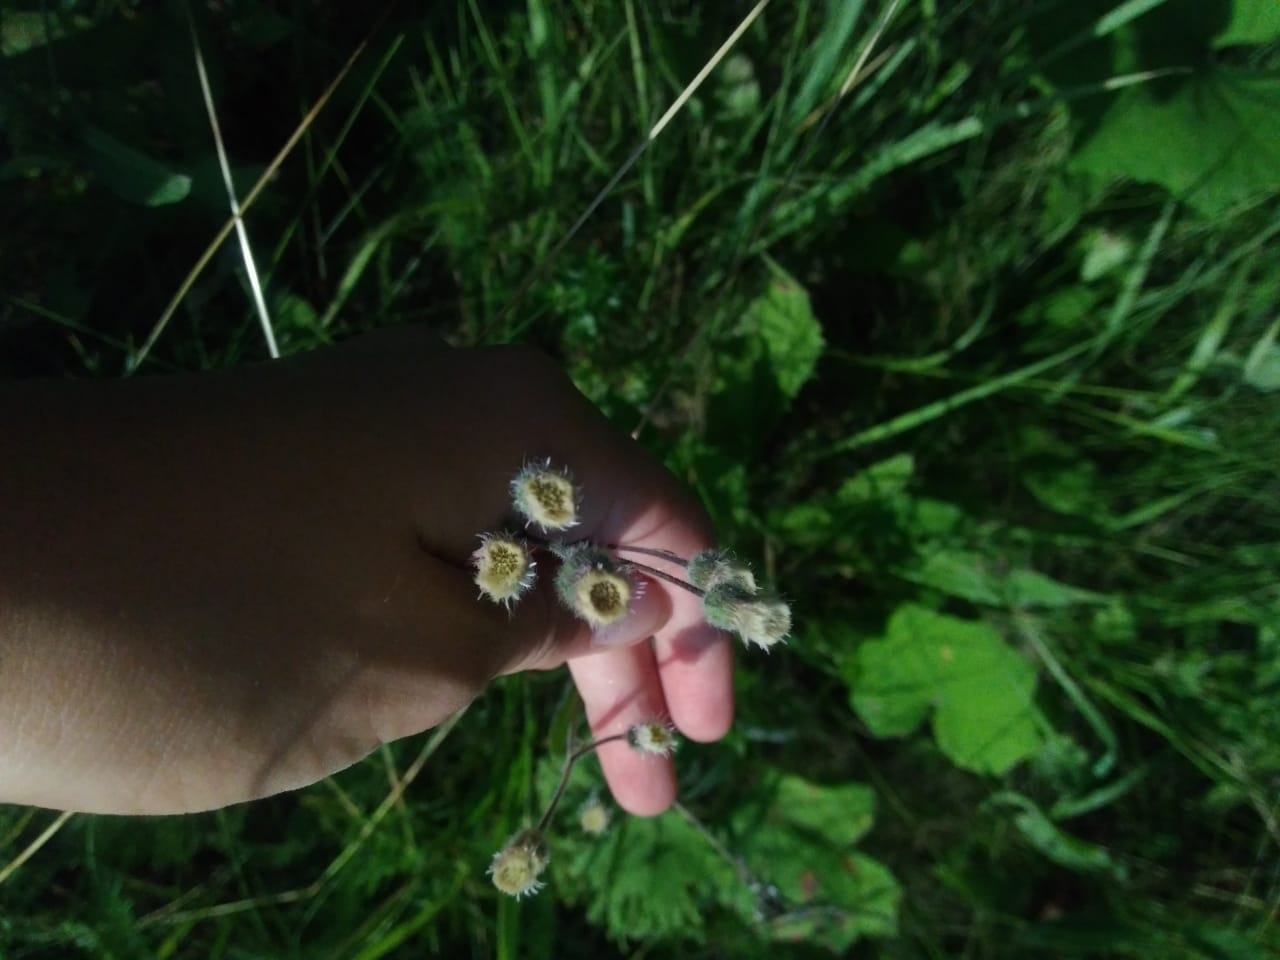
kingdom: Plantae
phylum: Tracheophyta
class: Magnoliopsida
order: Asterales
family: Asteraceae
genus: Erigeron
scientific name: Erigeron acris
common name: Blue fleabane
